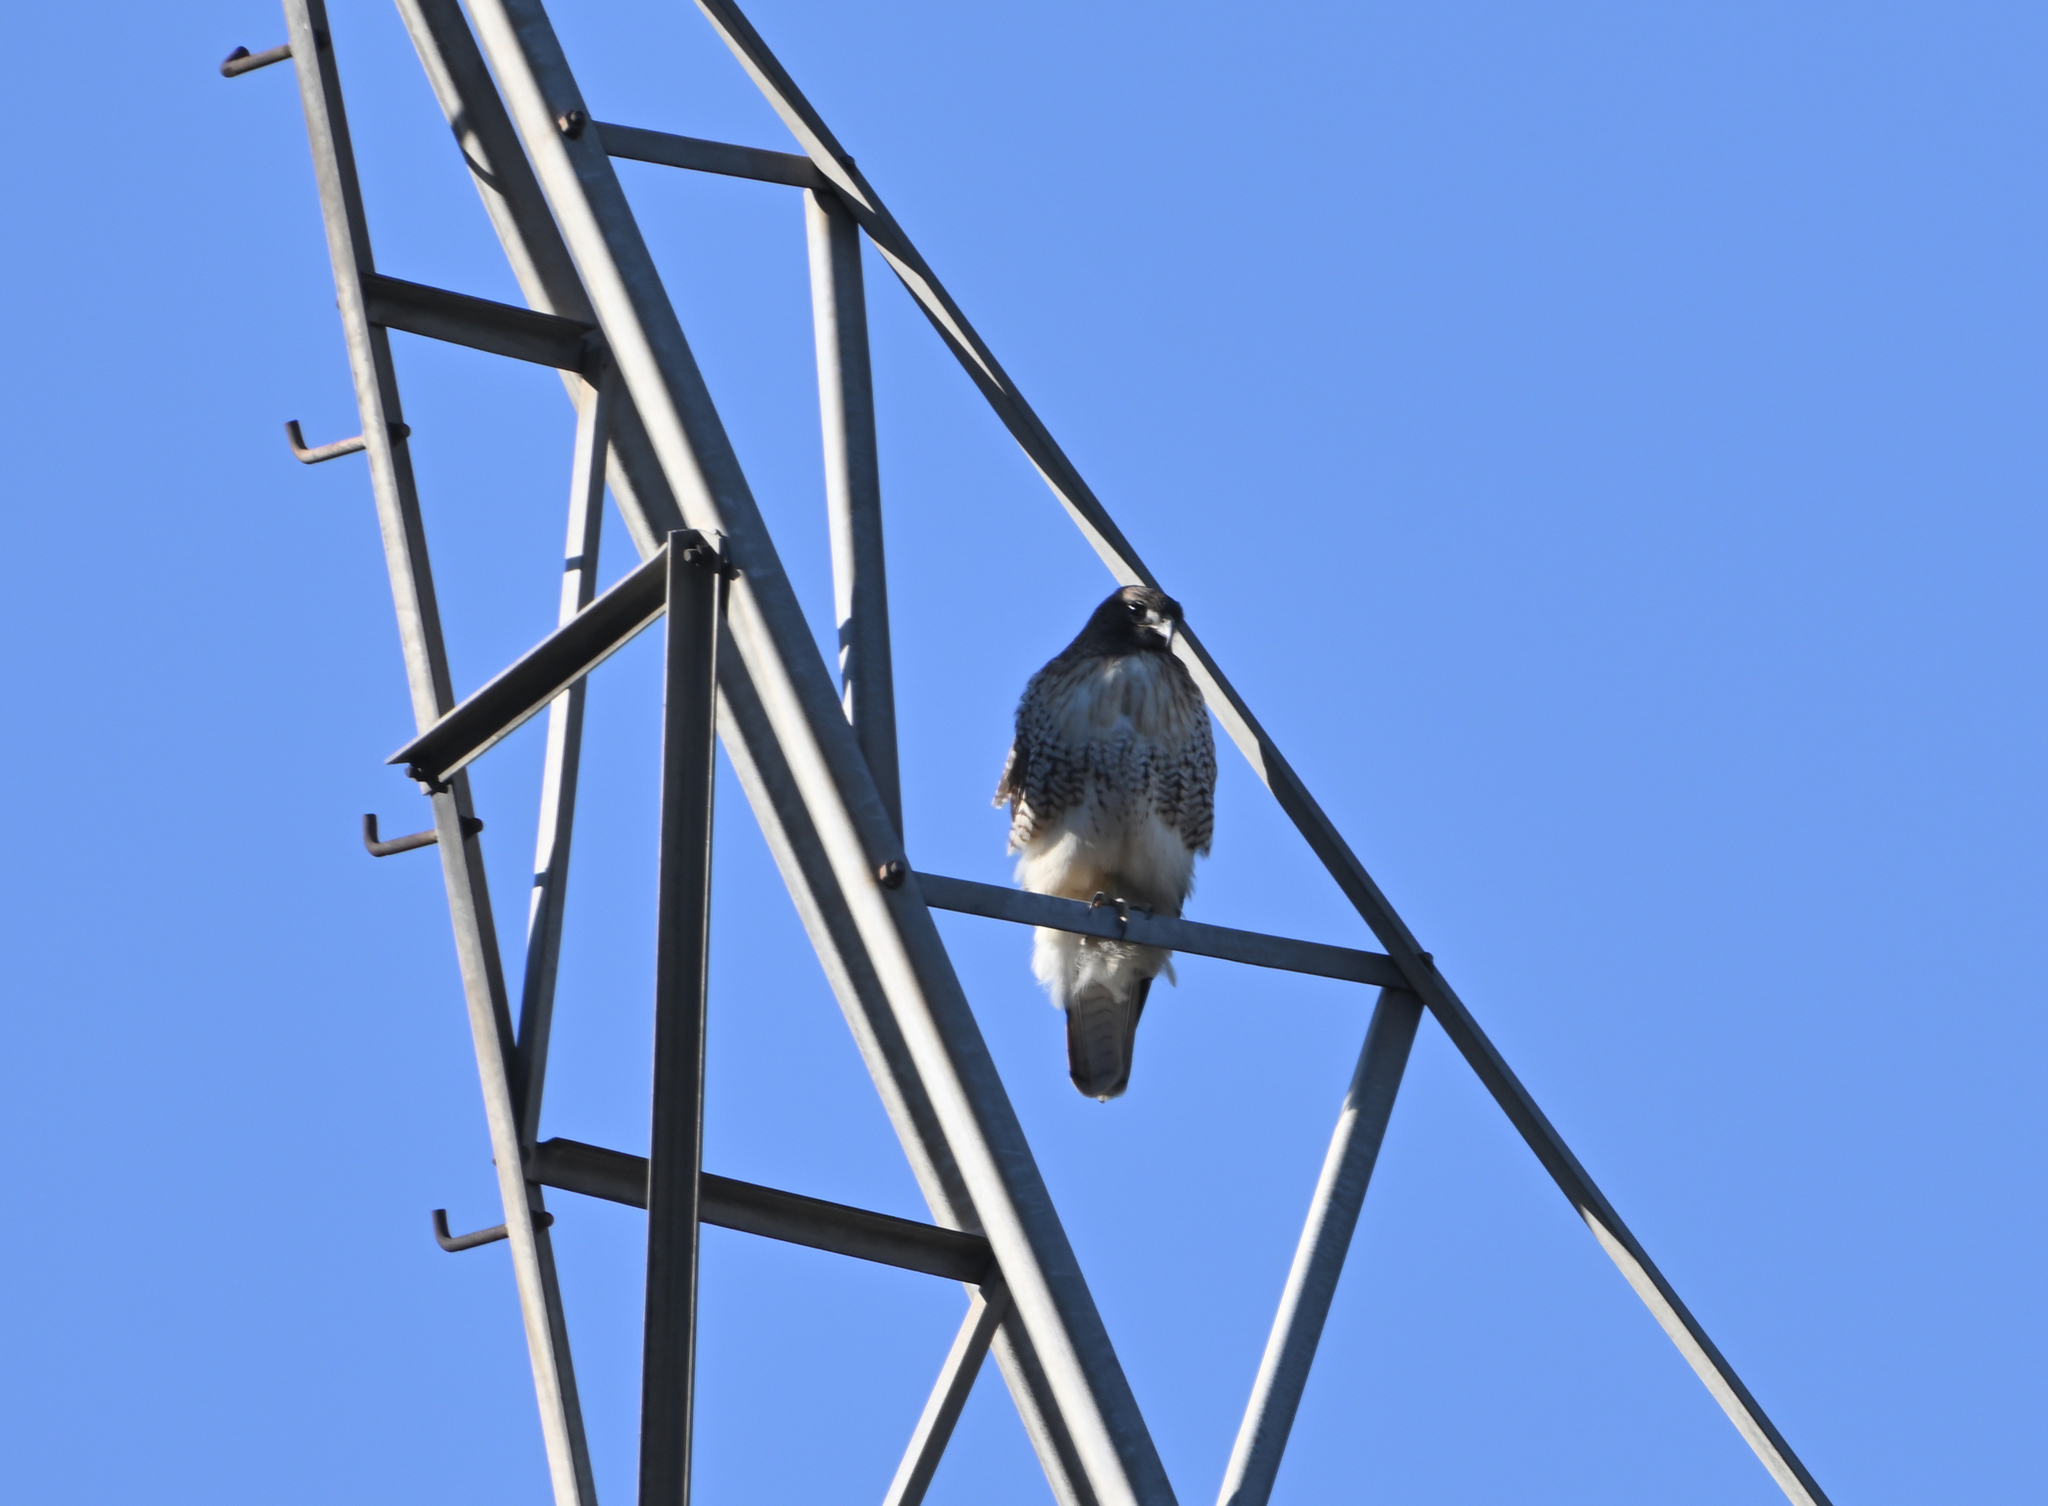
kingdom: Animalia
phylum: Chordata
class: Aves
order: Accipitriformes
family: Accipitridae
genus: Buteo
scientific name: Buteo jamaicensis
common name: Red-tailed hawk
